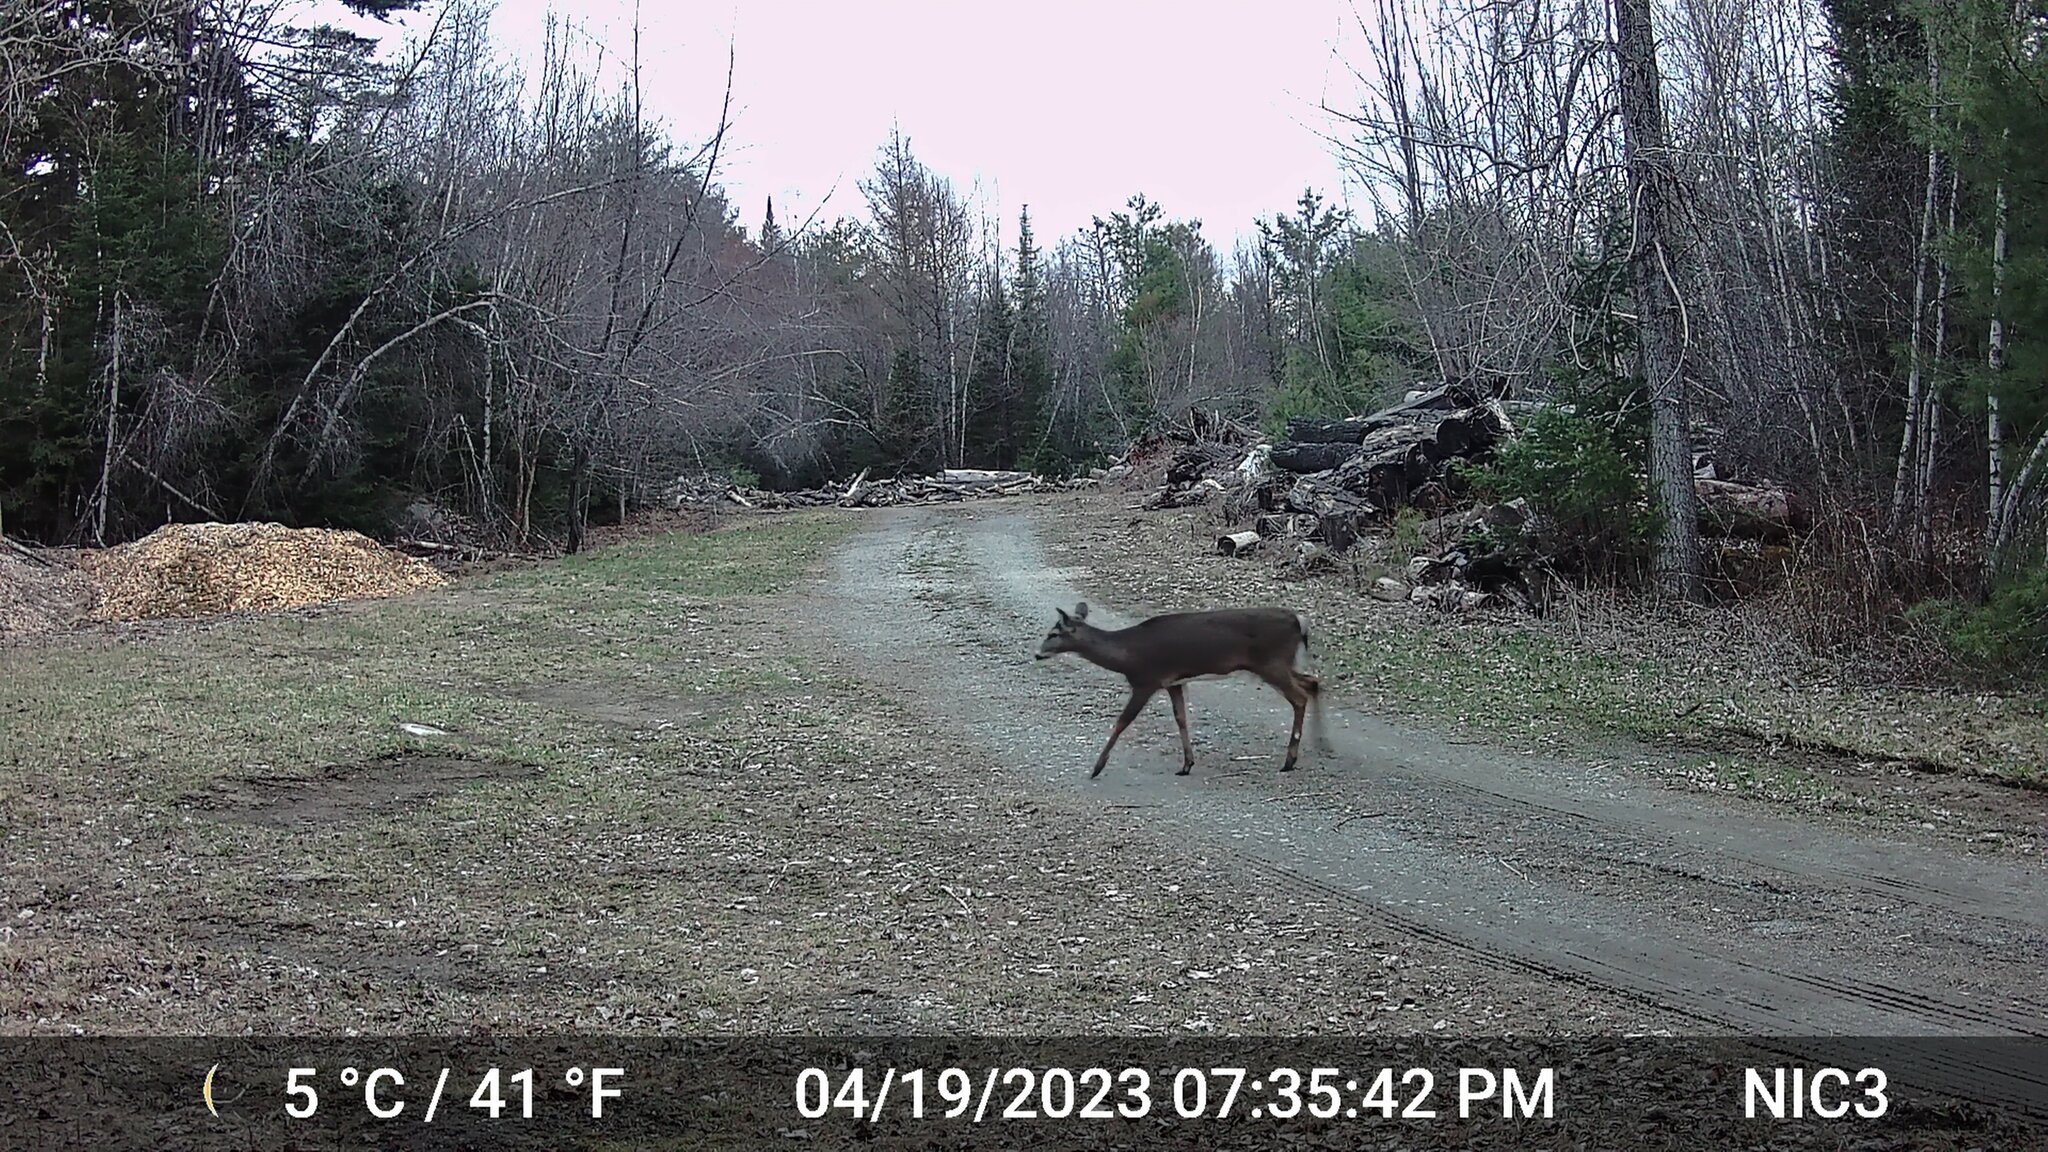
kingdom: Animalia
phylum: Chordata
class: Mammalia
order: Artiodactyla
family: Cervidae
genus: Odocoileus
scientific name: Odocoileus virginianus
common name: White-tailed deer
